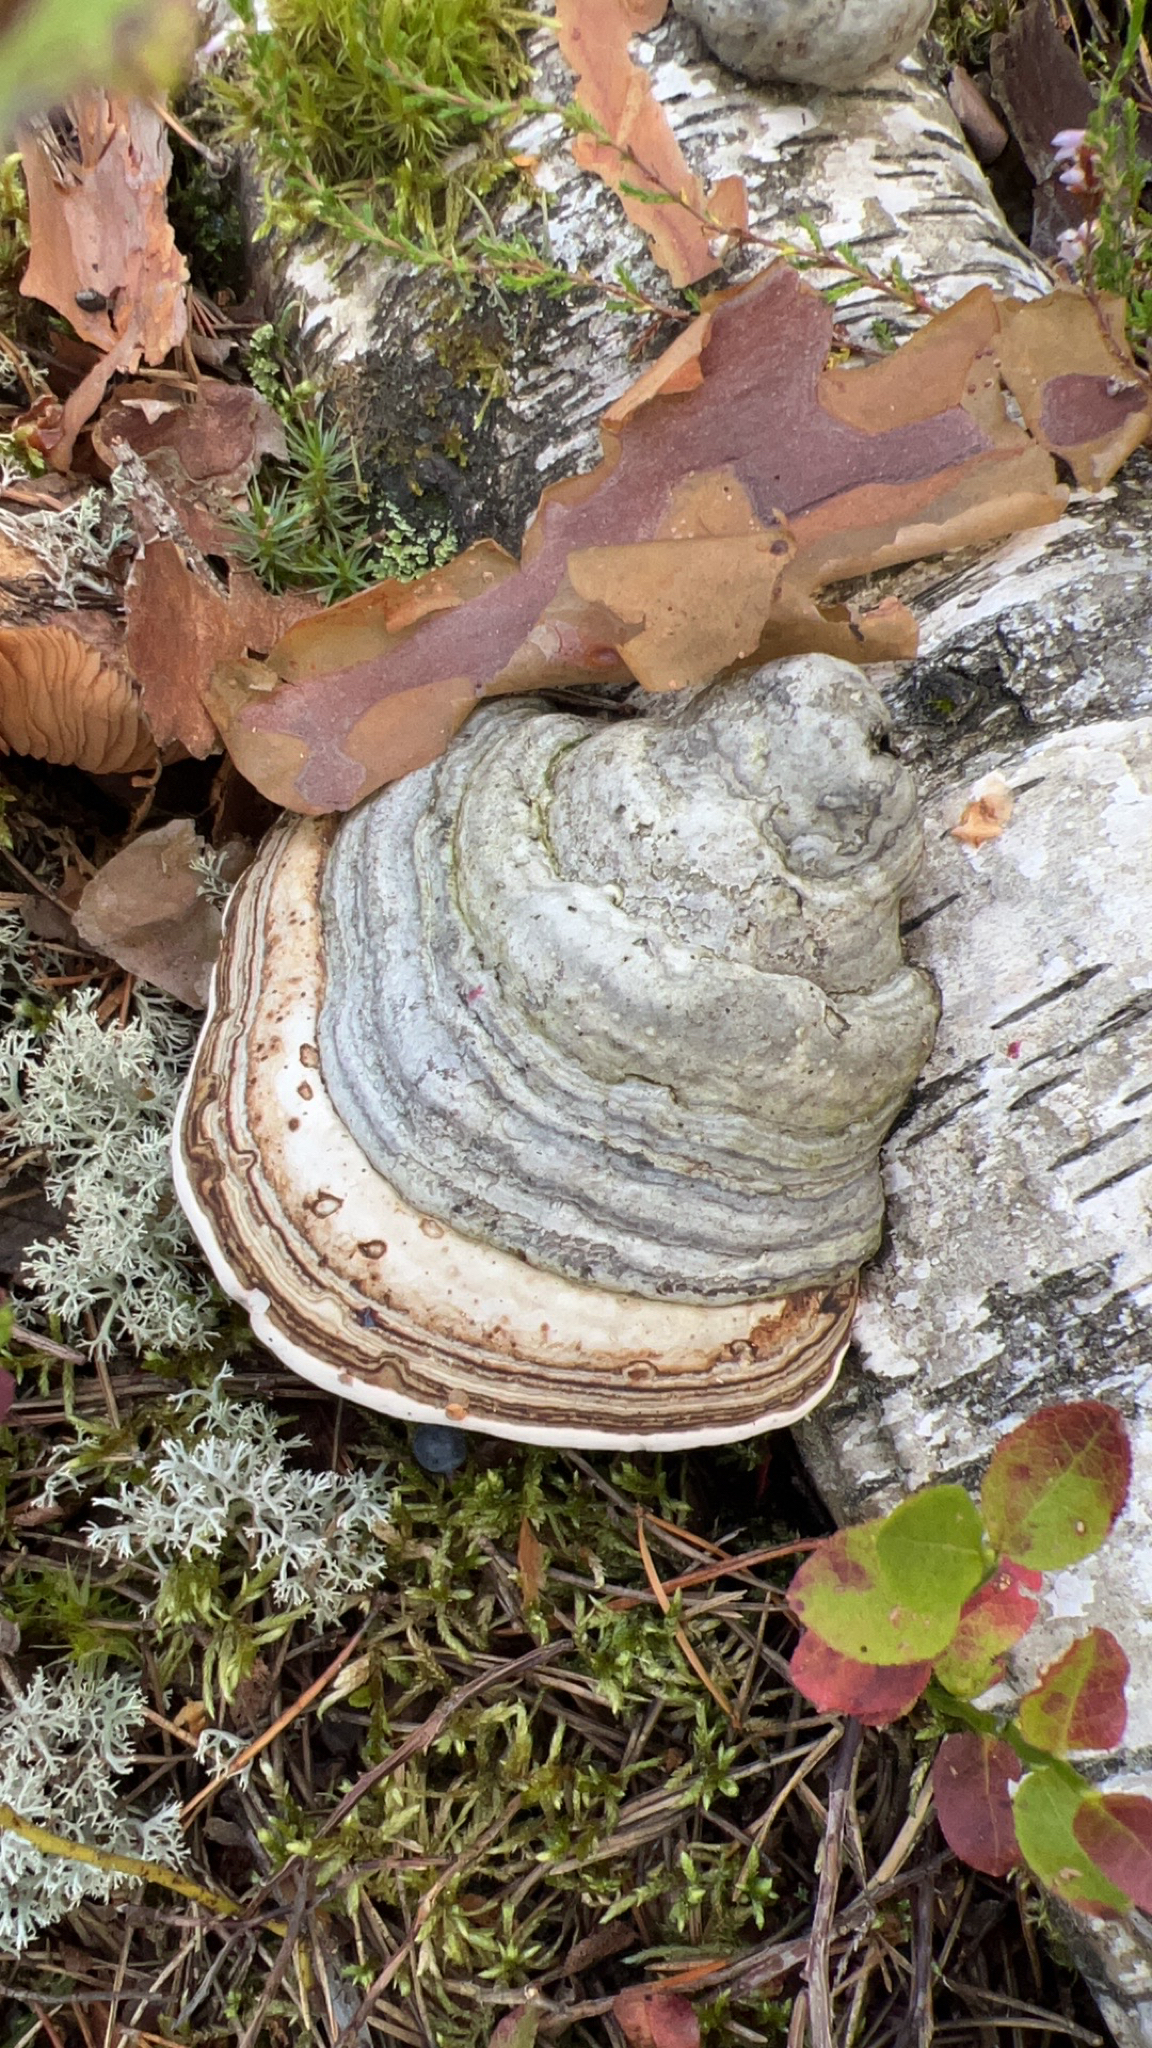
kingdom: Fungi
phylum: Basidiomycota
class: Agaricomycetes
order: Polyporales
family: Polyporaceae
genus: Fomes
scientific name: Fomes fomentarius
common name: Hoof fungus
